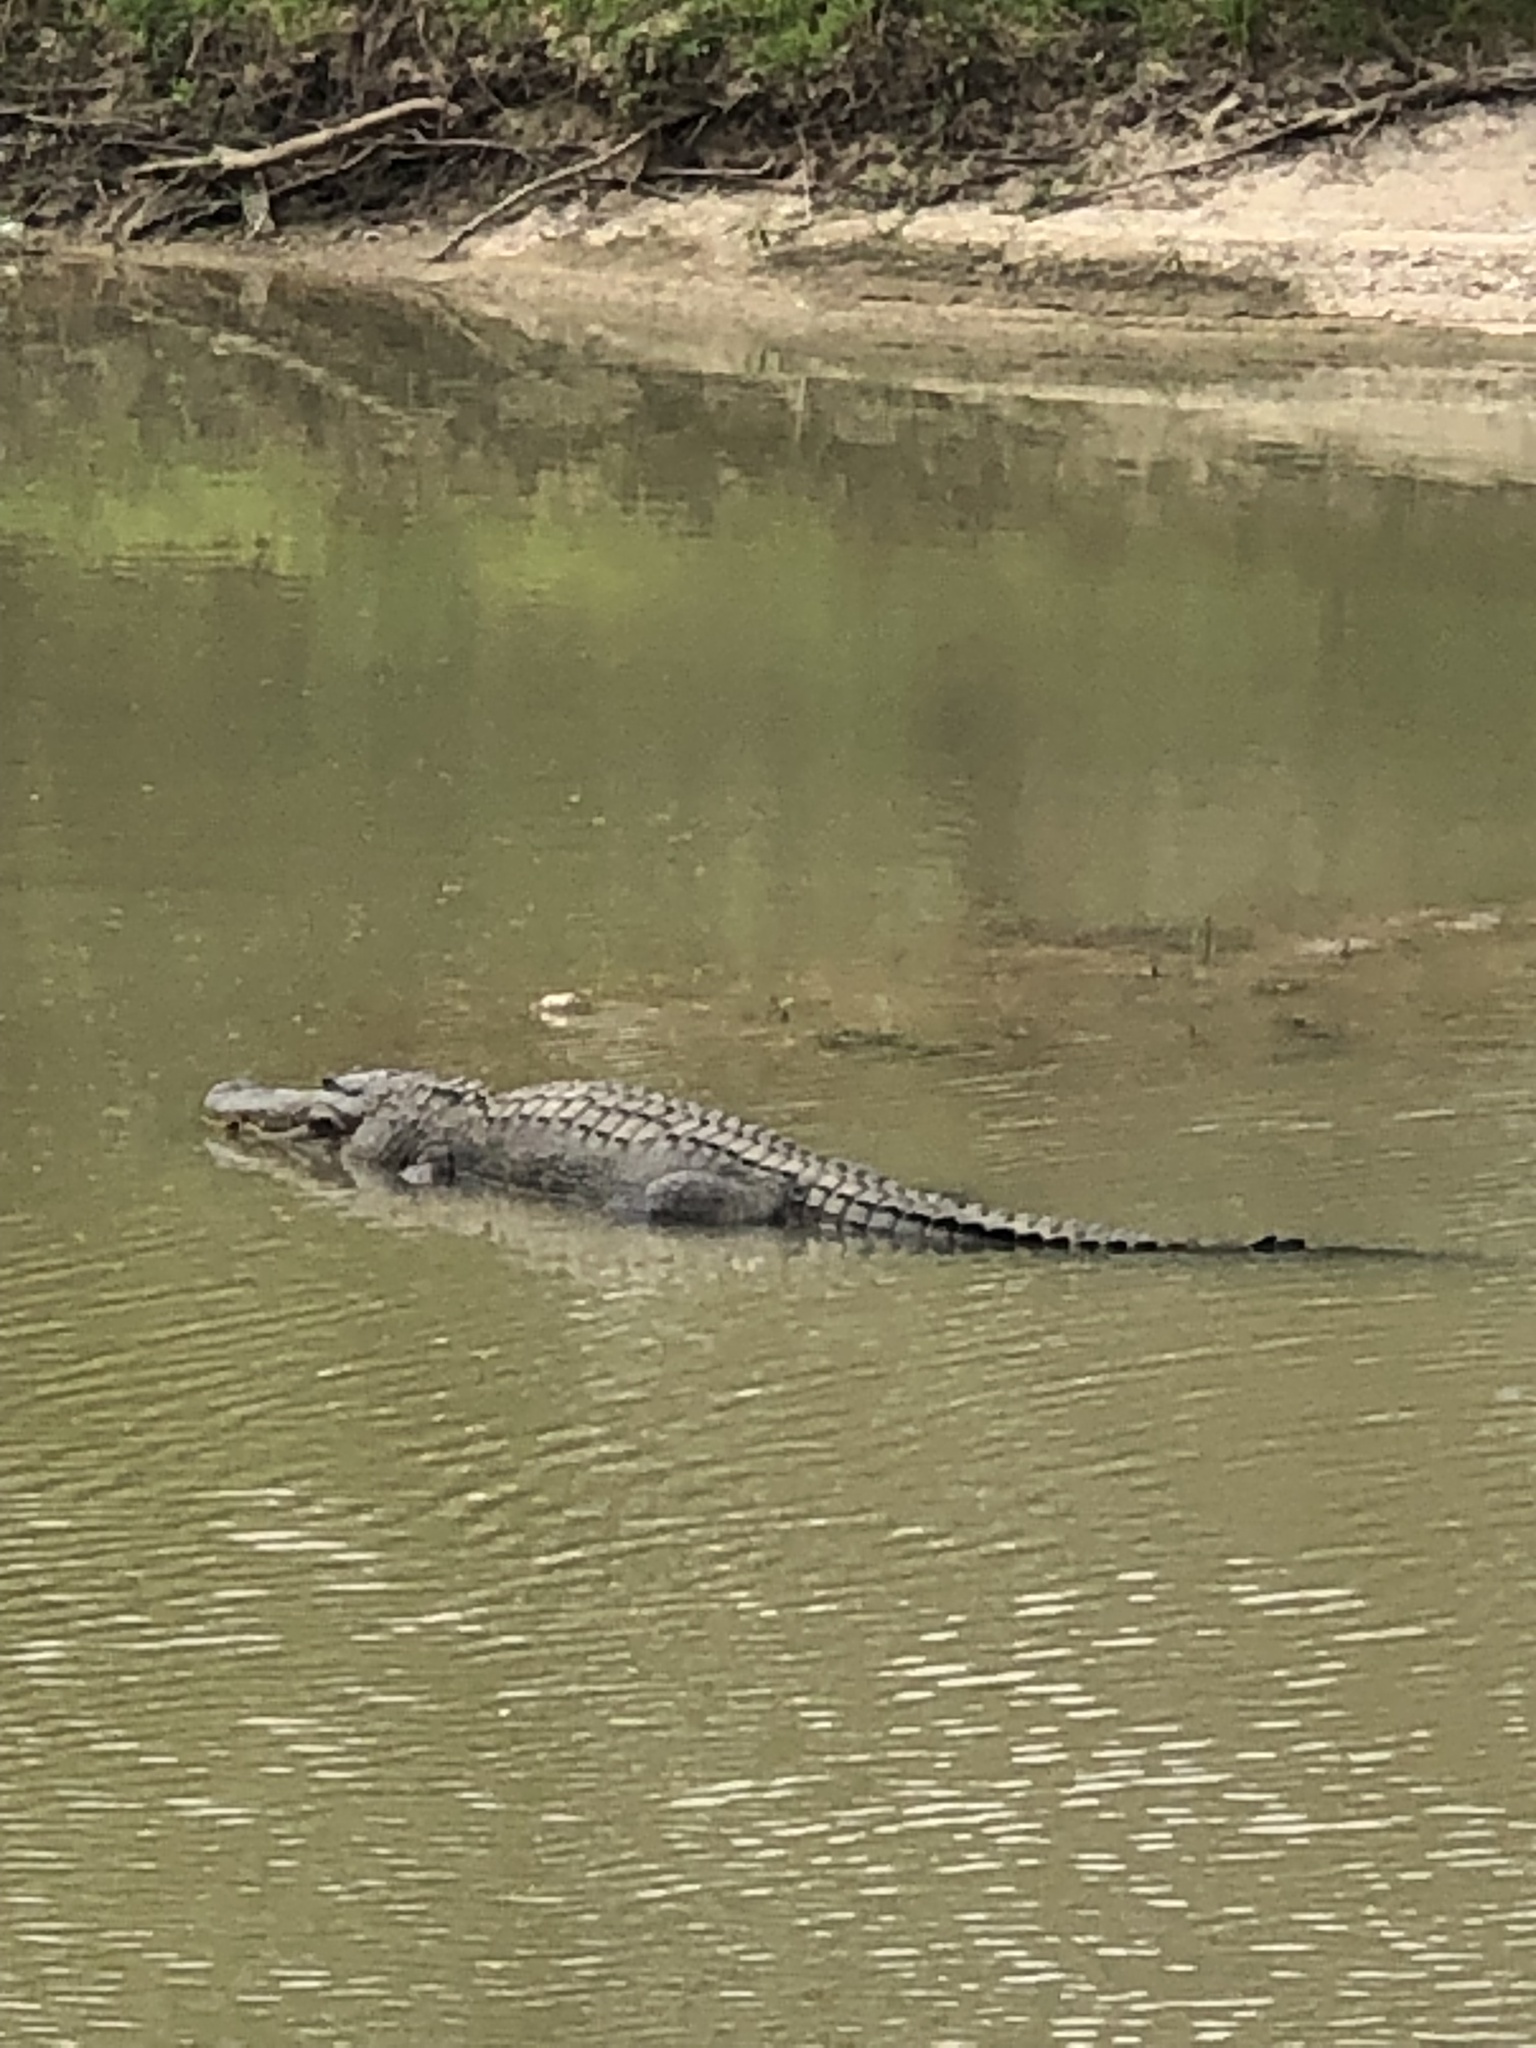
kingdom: Animalia
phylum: Chordata
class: Crocodylia
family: Alligatoridae
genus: Alligator
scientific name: Alligator mississippiensis
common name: American alligator
